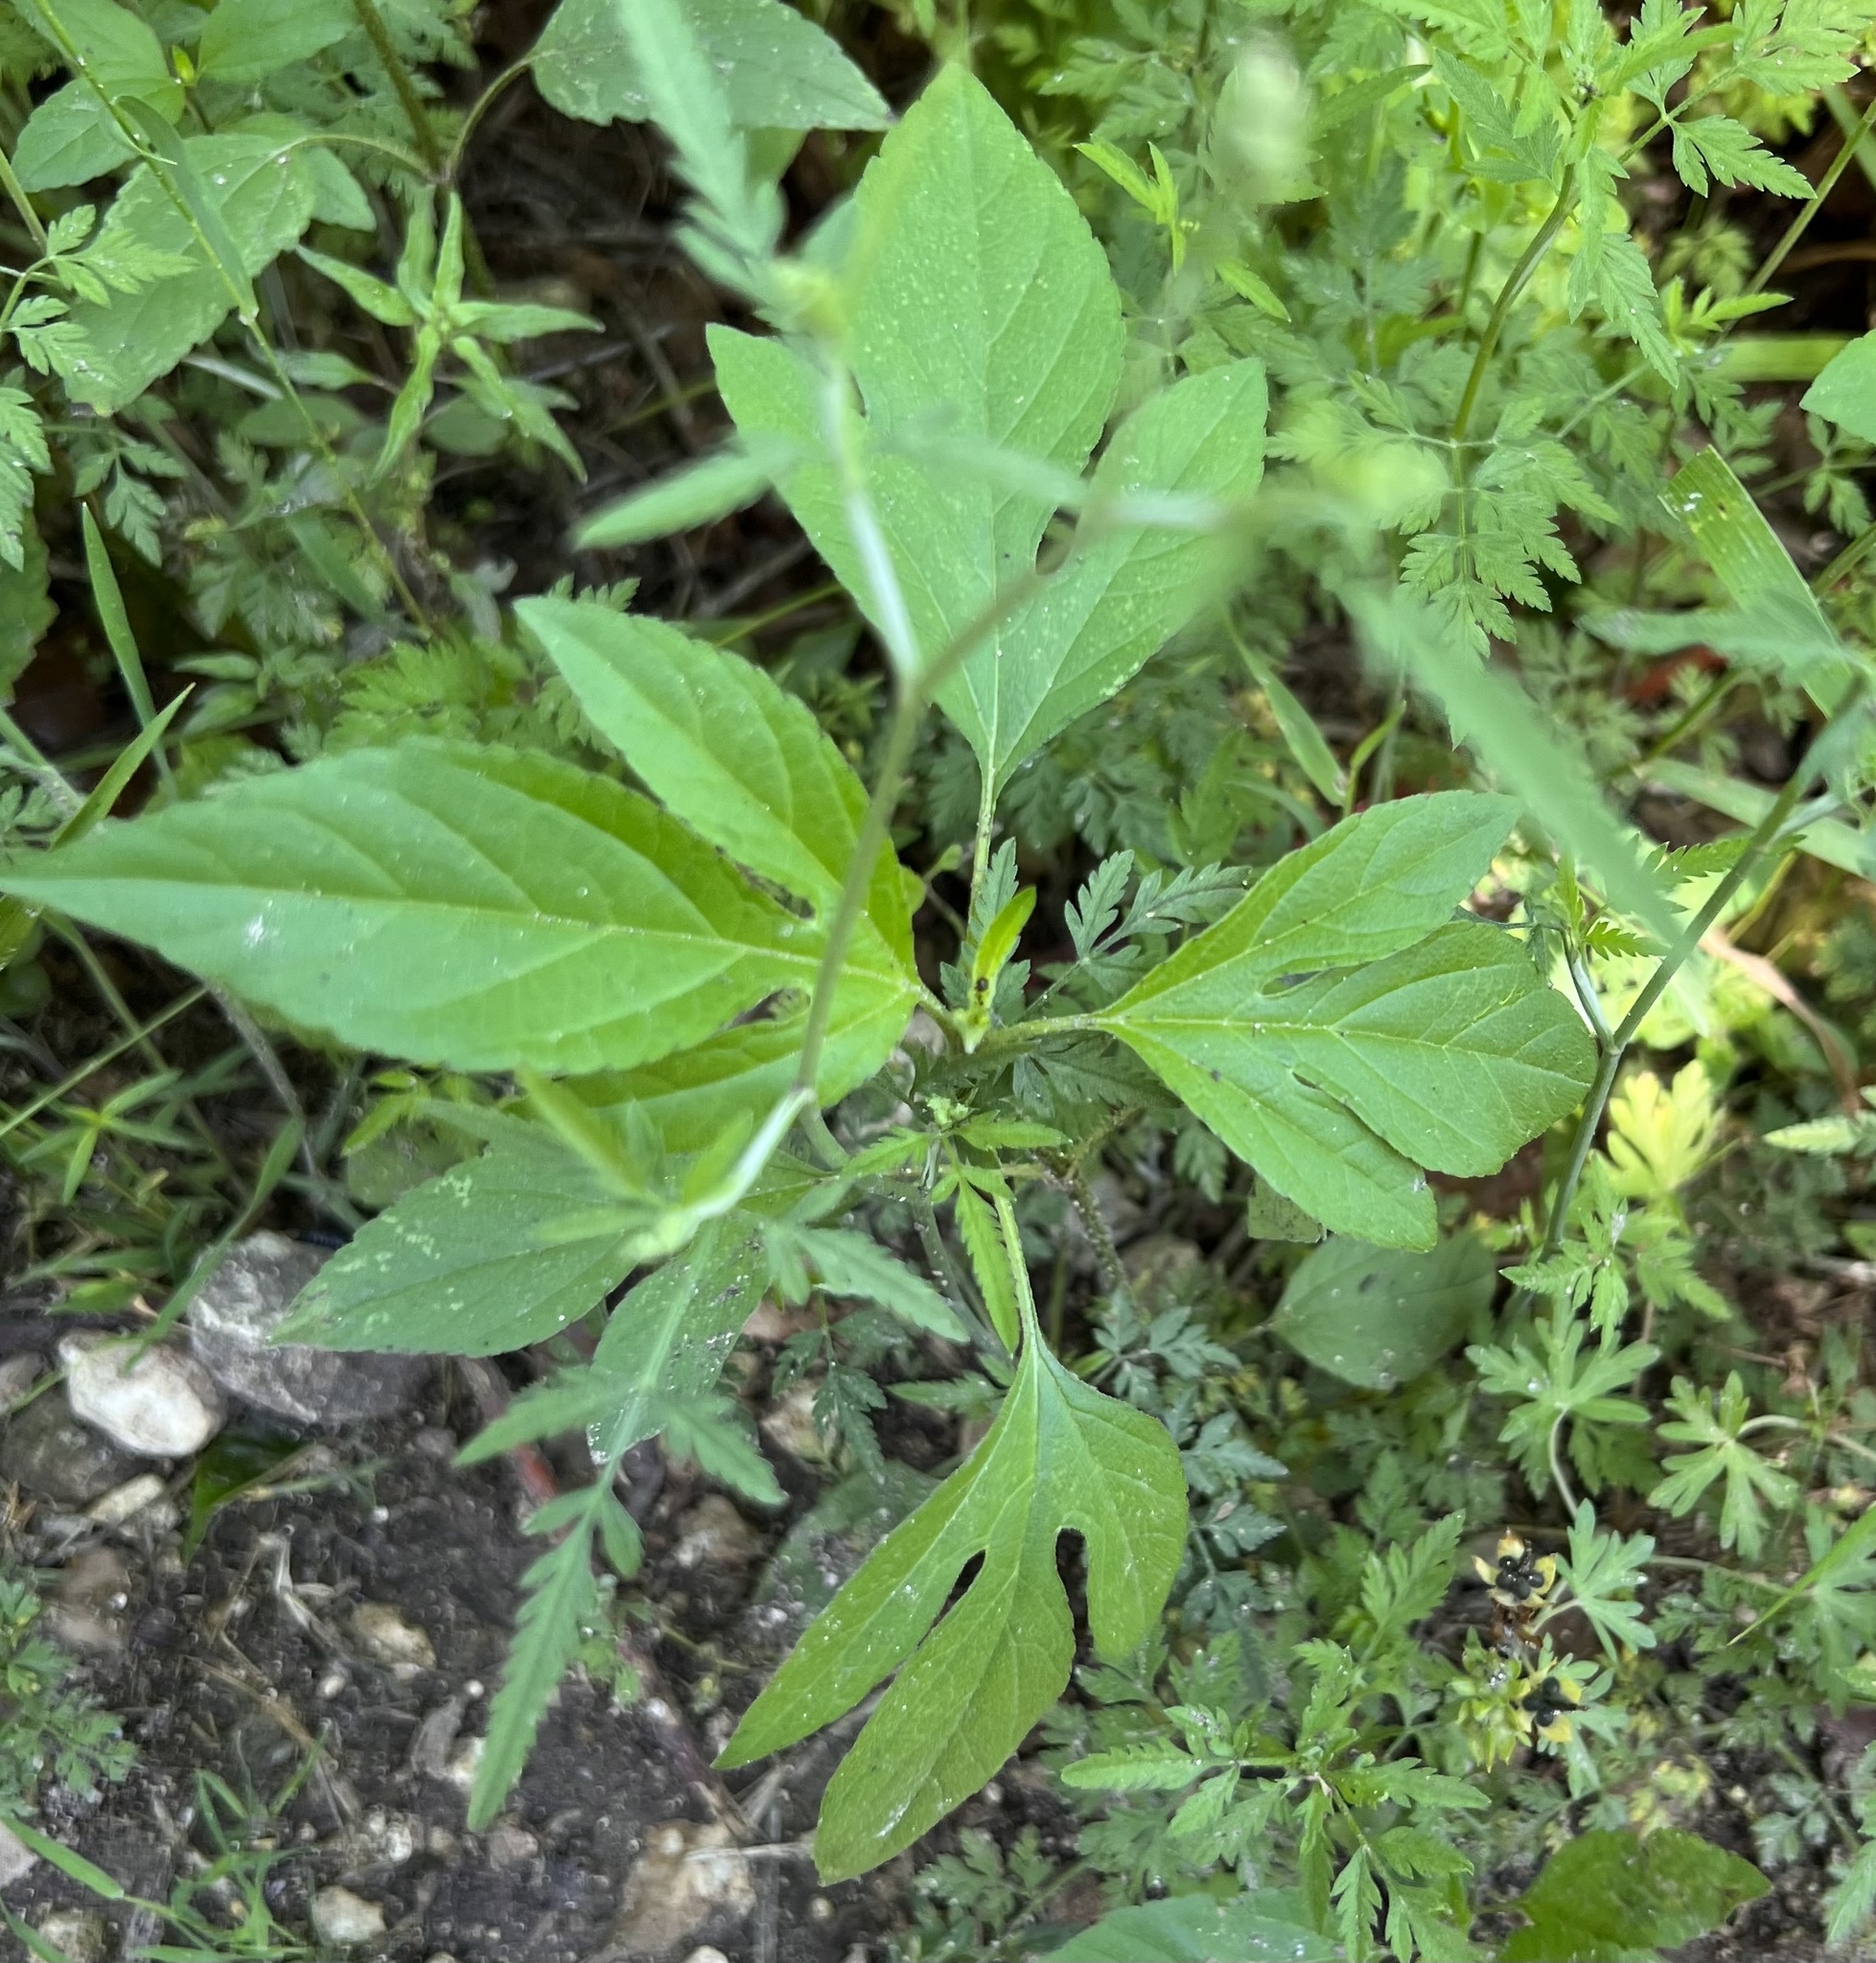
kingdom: Plantae
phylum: Tracheophyta
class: Magnoliopsida
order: Asterales
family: Asteraceae
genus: Ambrosia
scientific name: Ambrosia trifida
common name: Giant ragweed
